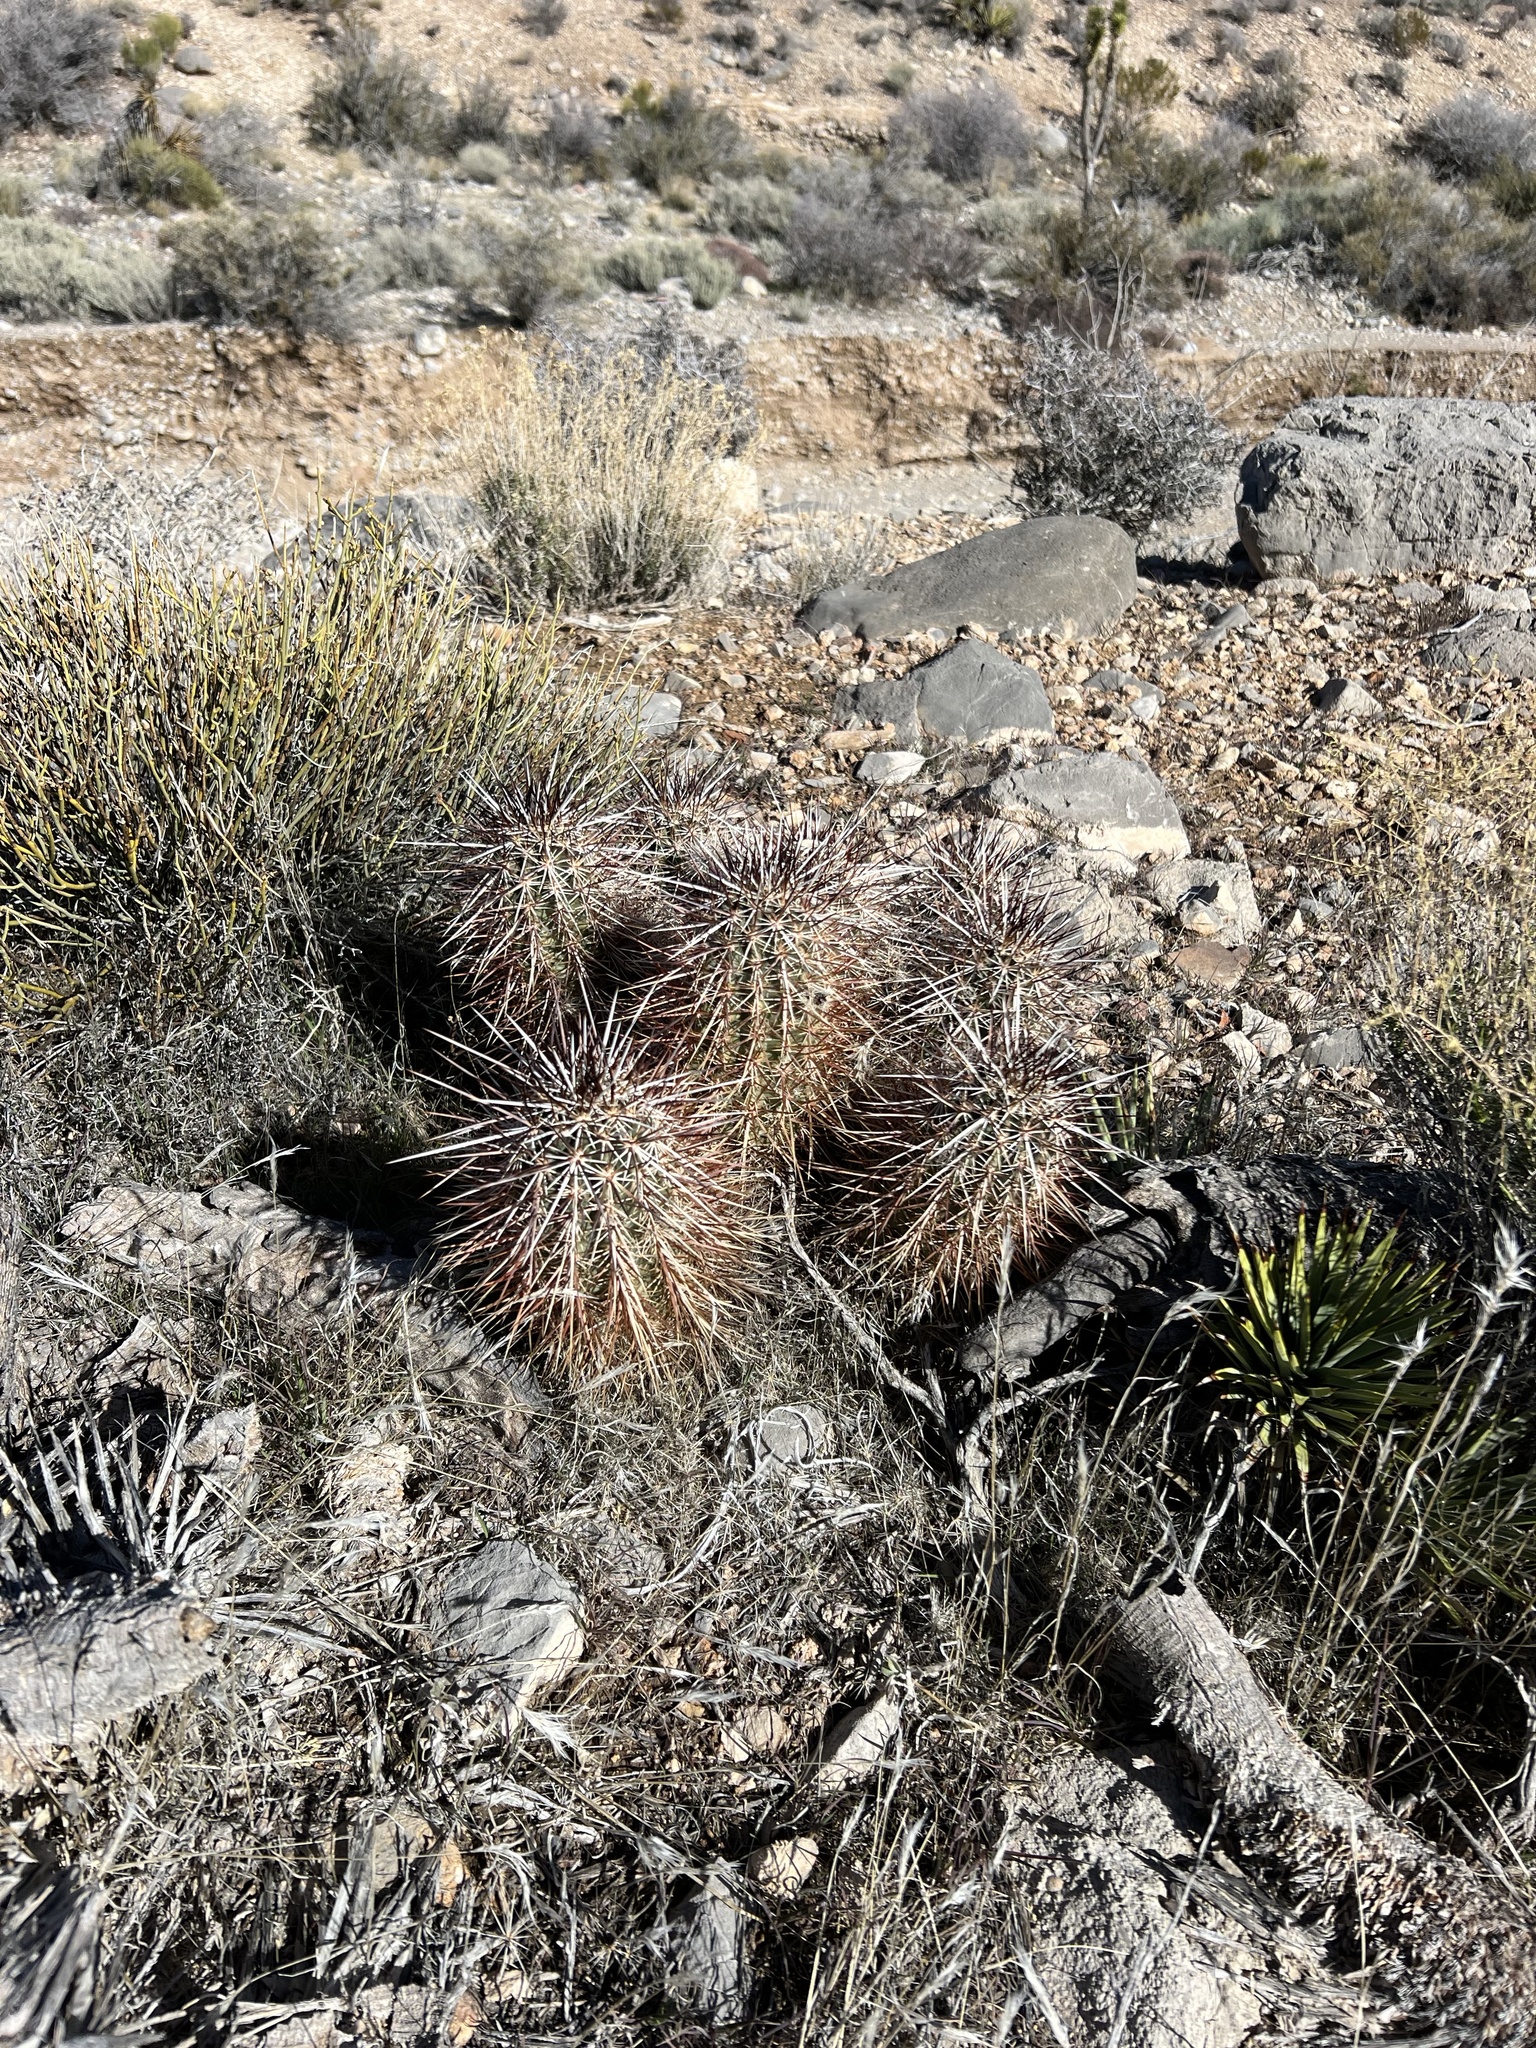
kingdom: Plantae
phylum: Tracheophyta
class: Magnoliopsida
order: Caryophyllales
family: Cactaceae
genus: Echinocereus
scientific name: Echinocereus engelmannii
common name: Engelmann's hedgehog cactus
